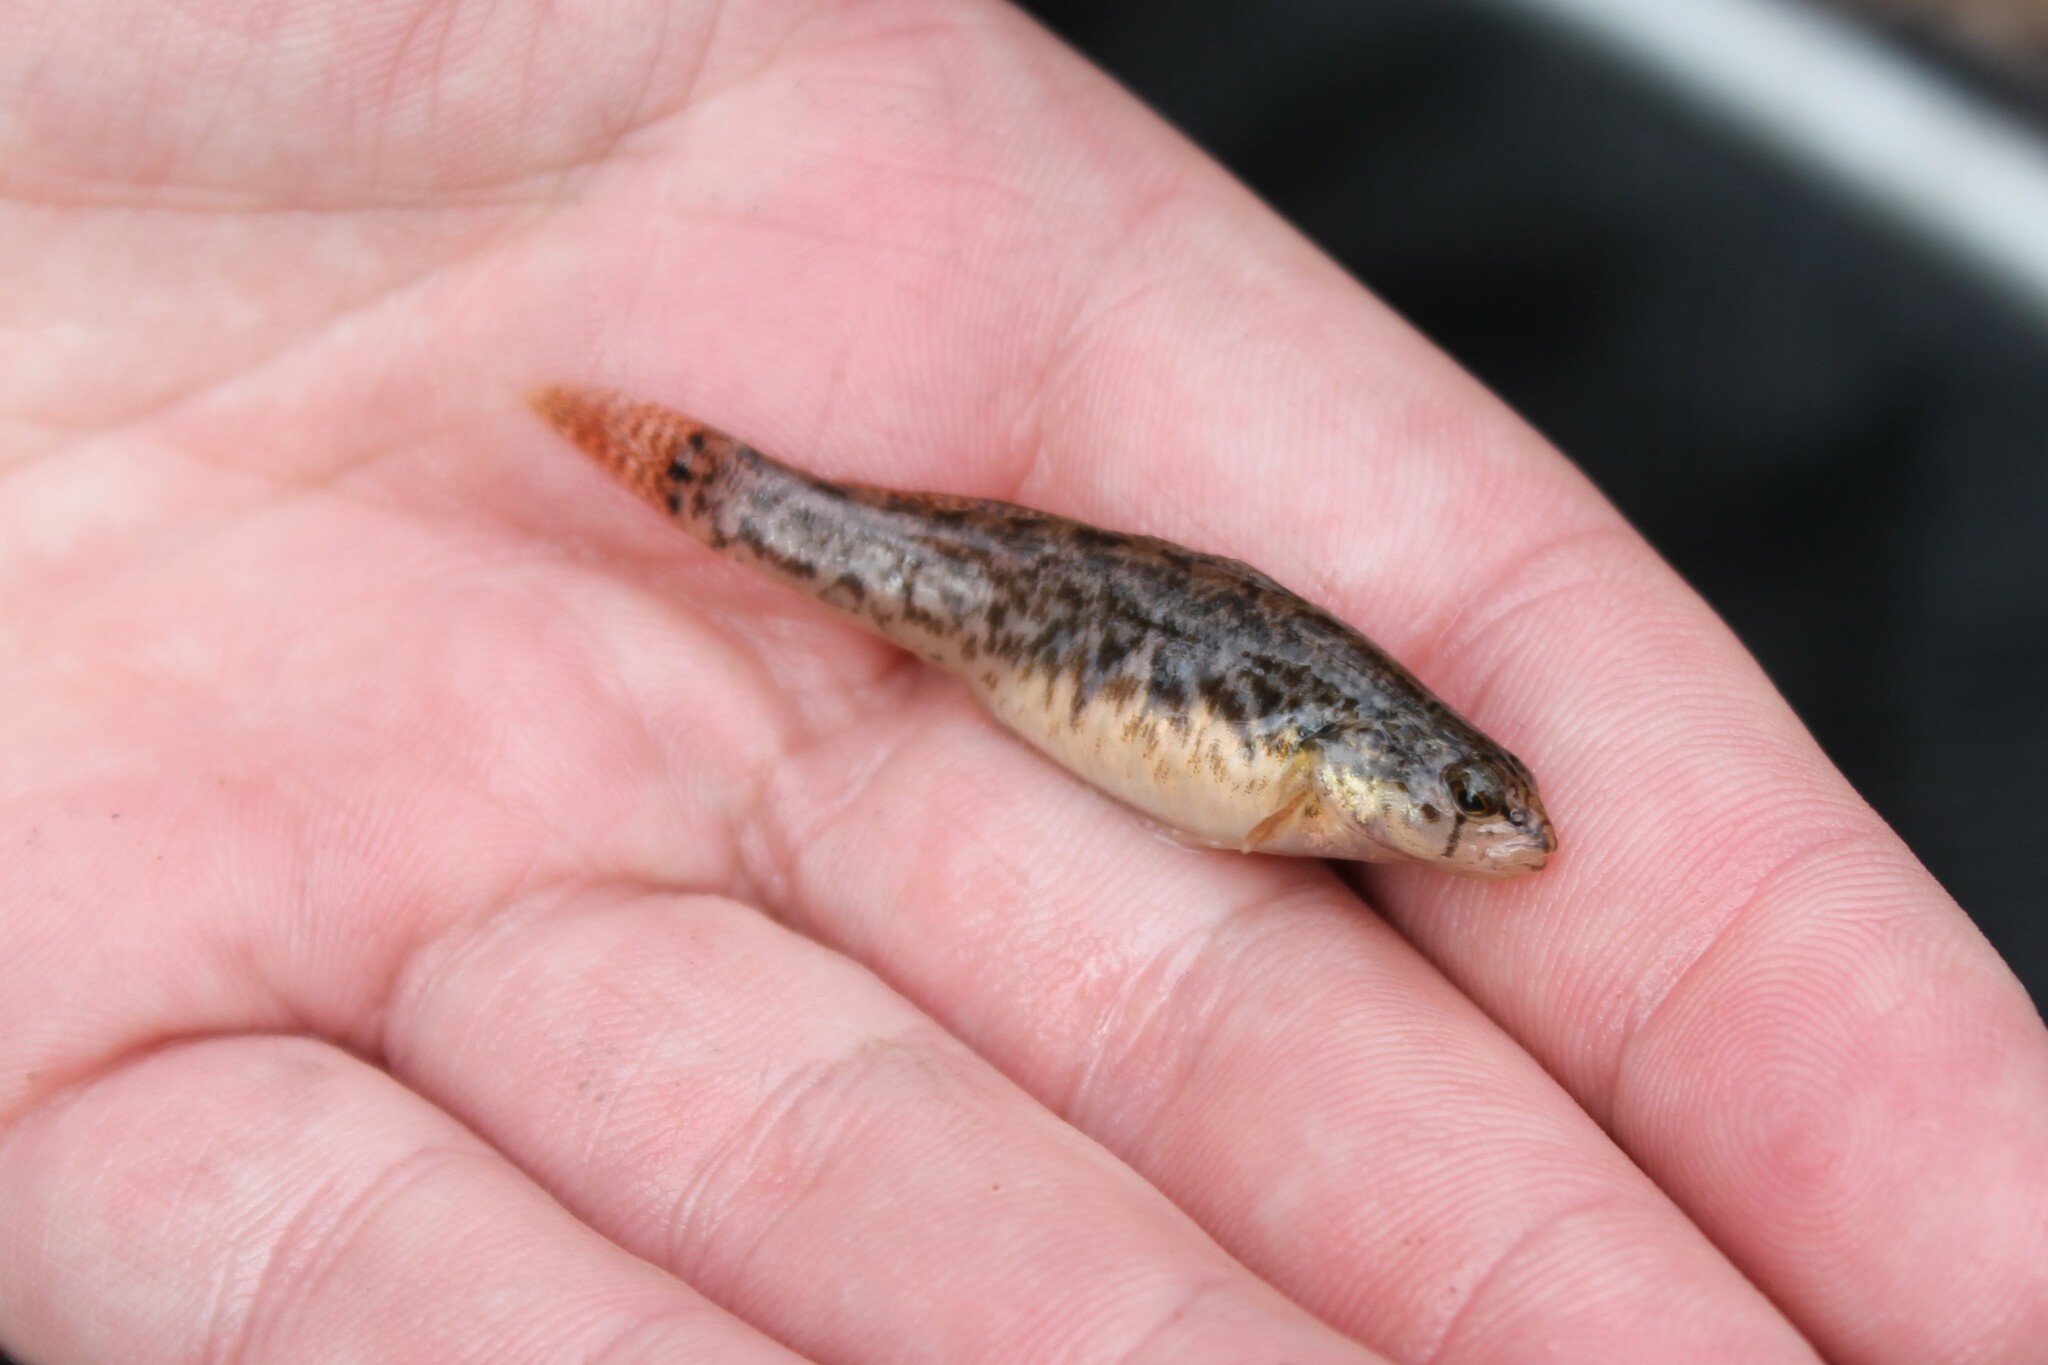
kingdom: Animalia
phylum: Chordata
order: Perciformes
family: Percidae
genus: Etheostoma
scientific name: Etheostoma crossopterum
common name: Fringed darter
